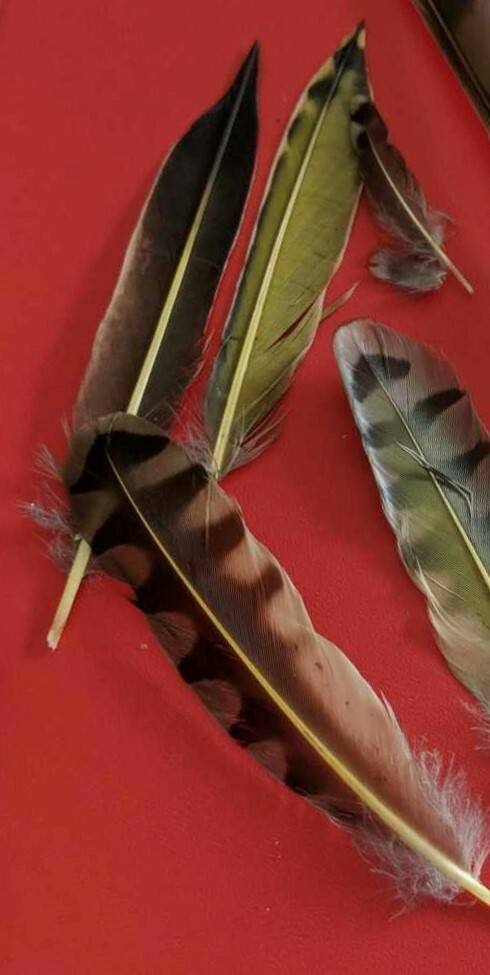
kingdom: Animalia
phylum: Chordata
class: Aves
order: Piciformes
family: Picidae
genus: Colaptes
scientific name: Colaptes auratus
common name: Northern flicker
